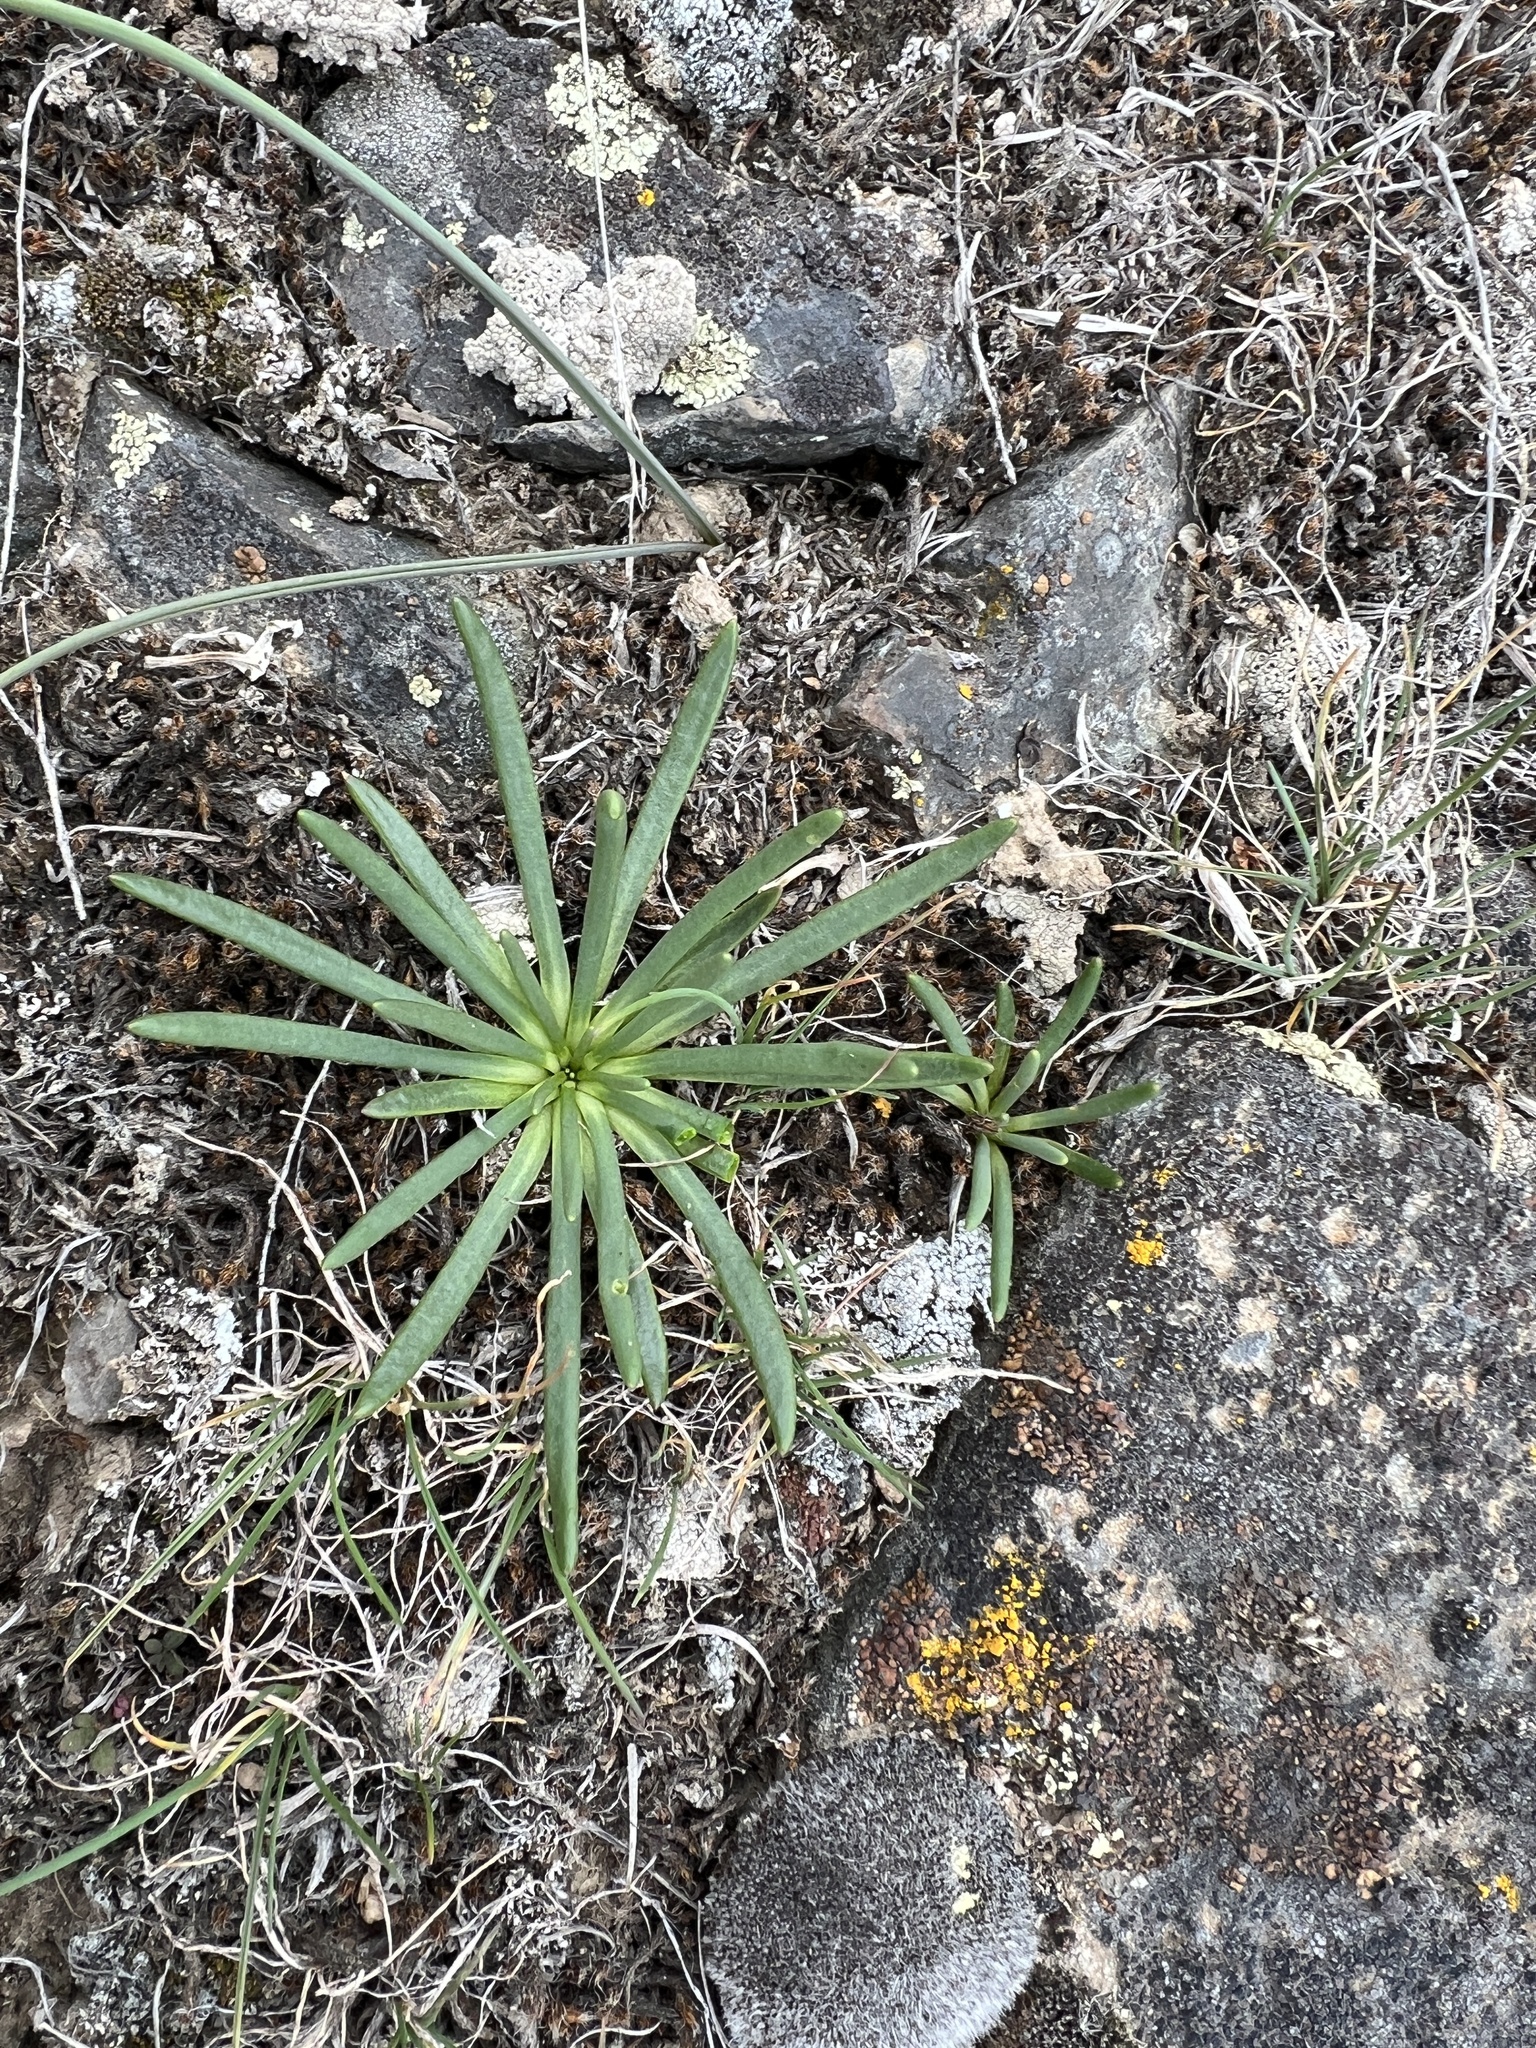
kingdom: Plantae
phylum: Tracheophyta
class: Magnoliopsida
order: Caryophyllales
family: Montiaceae
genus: Lewisia
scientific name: Lewisia rediviva
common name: Bitter-root
